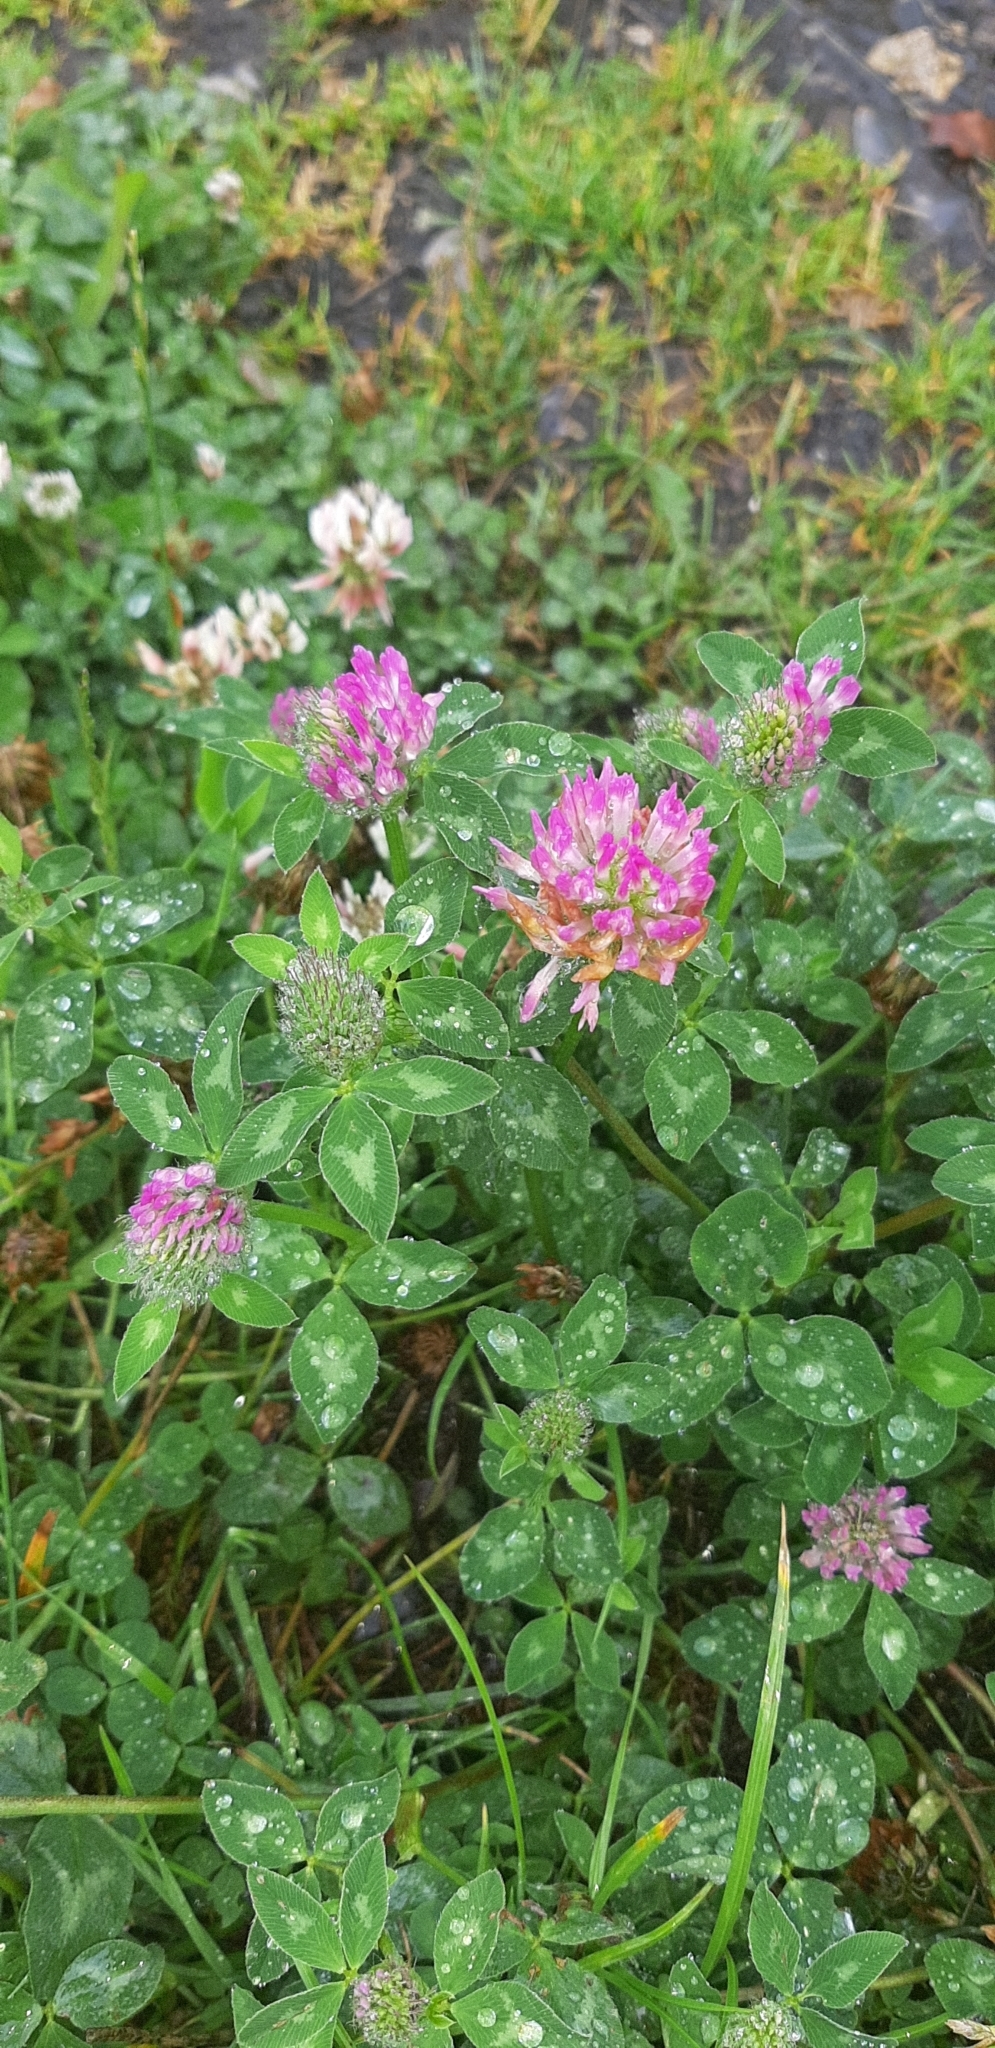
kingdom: Plantae
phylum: Tracheophyta
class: Magnoliopsida
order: Fabales
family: Fabaceae
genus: Trifolium
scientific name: Trifolium pratense
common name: Red clover
